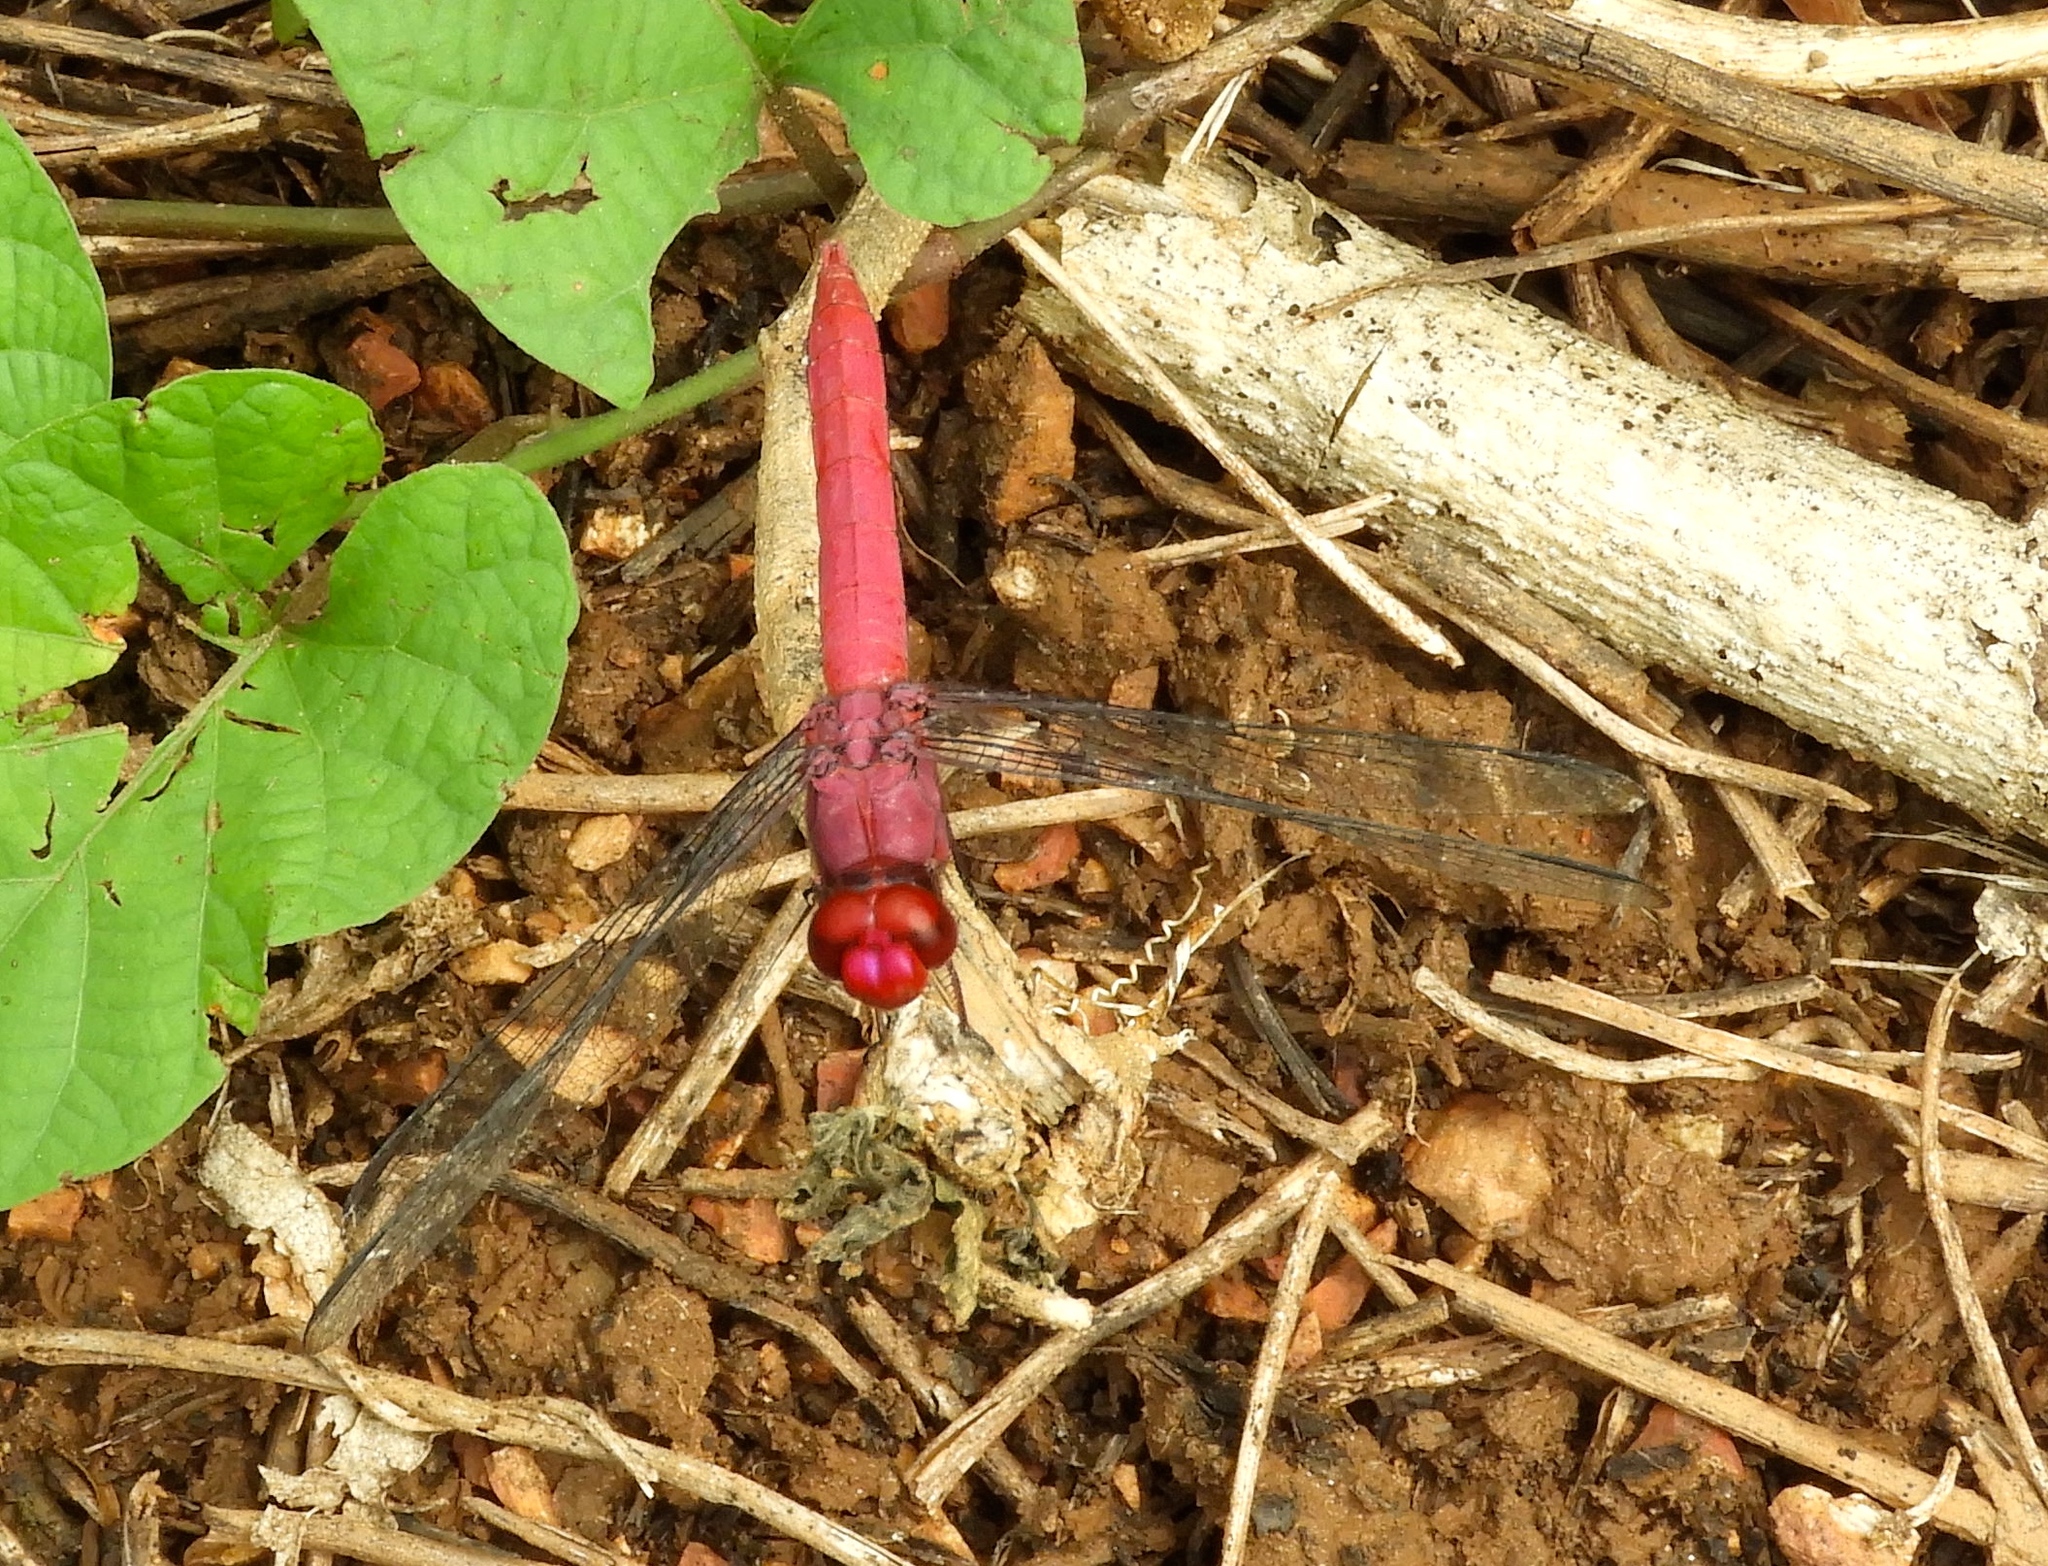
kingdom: Animalia
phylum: Arthropoda
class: Insecta
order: Odonata
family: Libellulidae
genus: Orthemis
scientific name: Orthemis discolor
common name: Carmine skimmer
